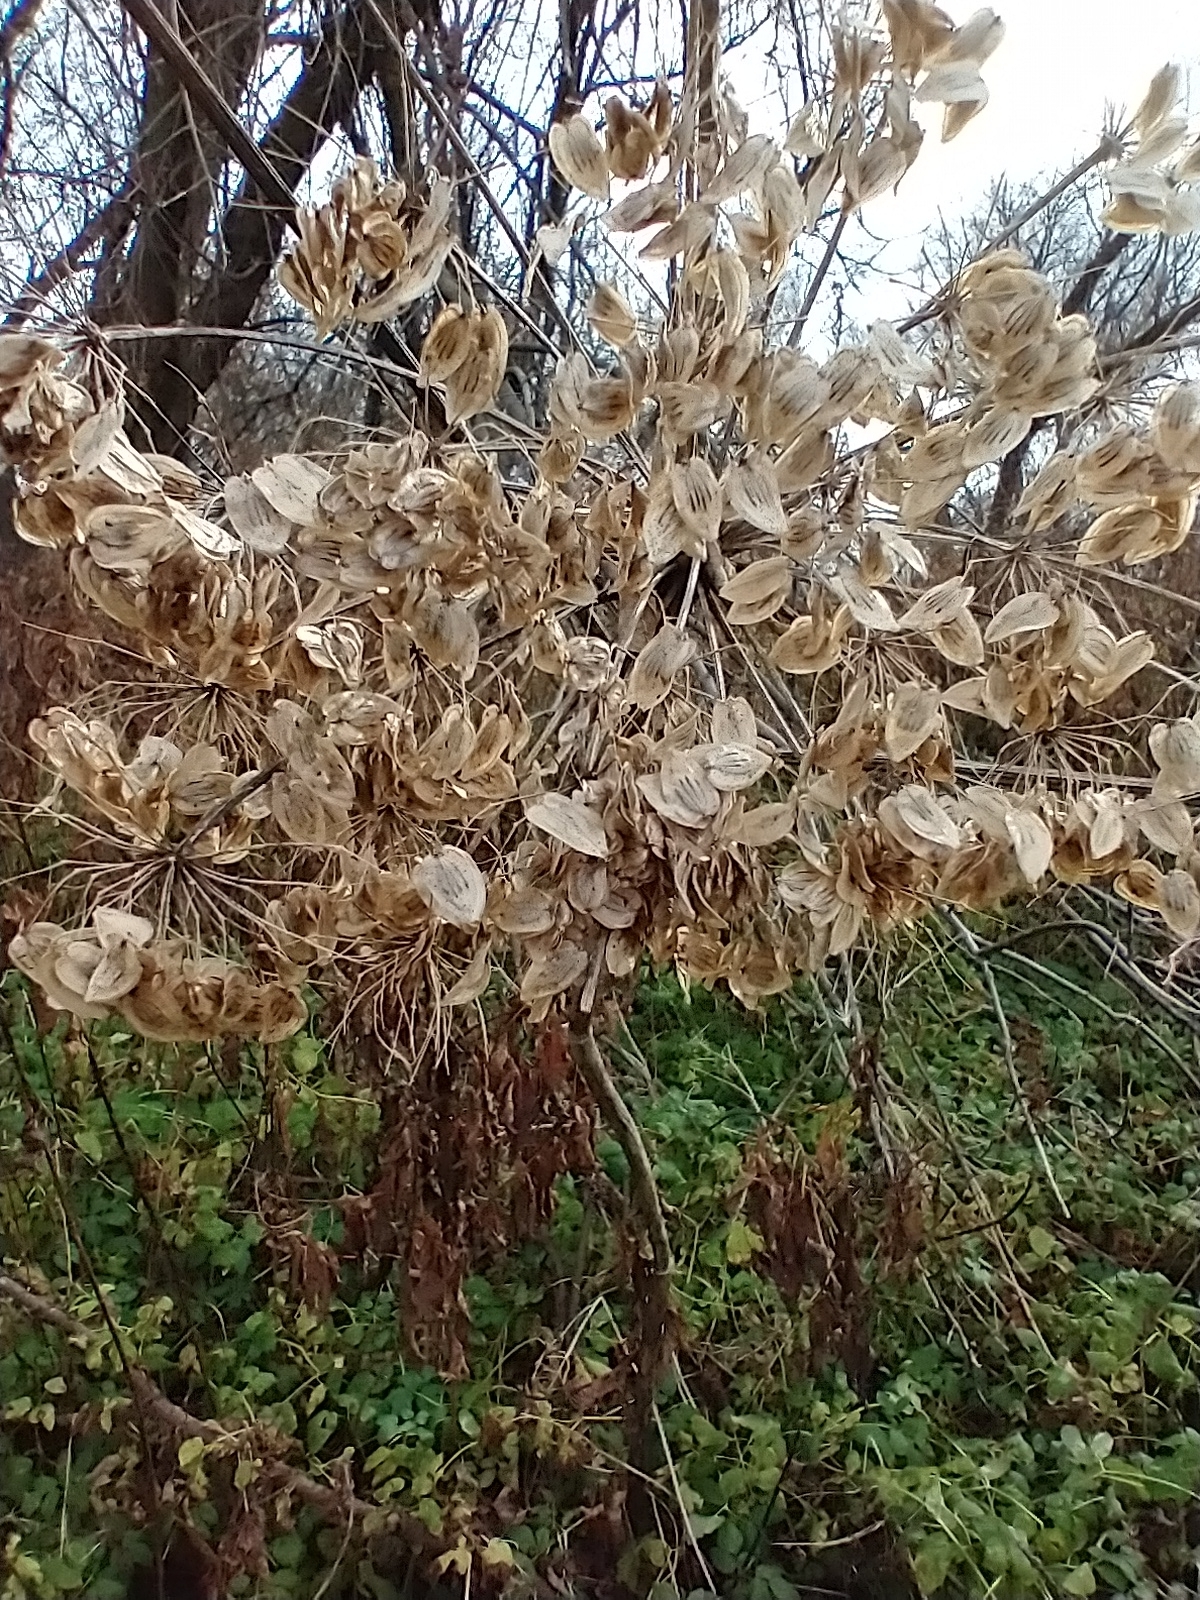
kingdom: Plantae
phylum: Tracheophyta
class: Magnoliopsida
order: Apiales
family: Apiaceae
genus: Heracleum
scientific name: Heracleum maximum
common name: American cow parsnip
